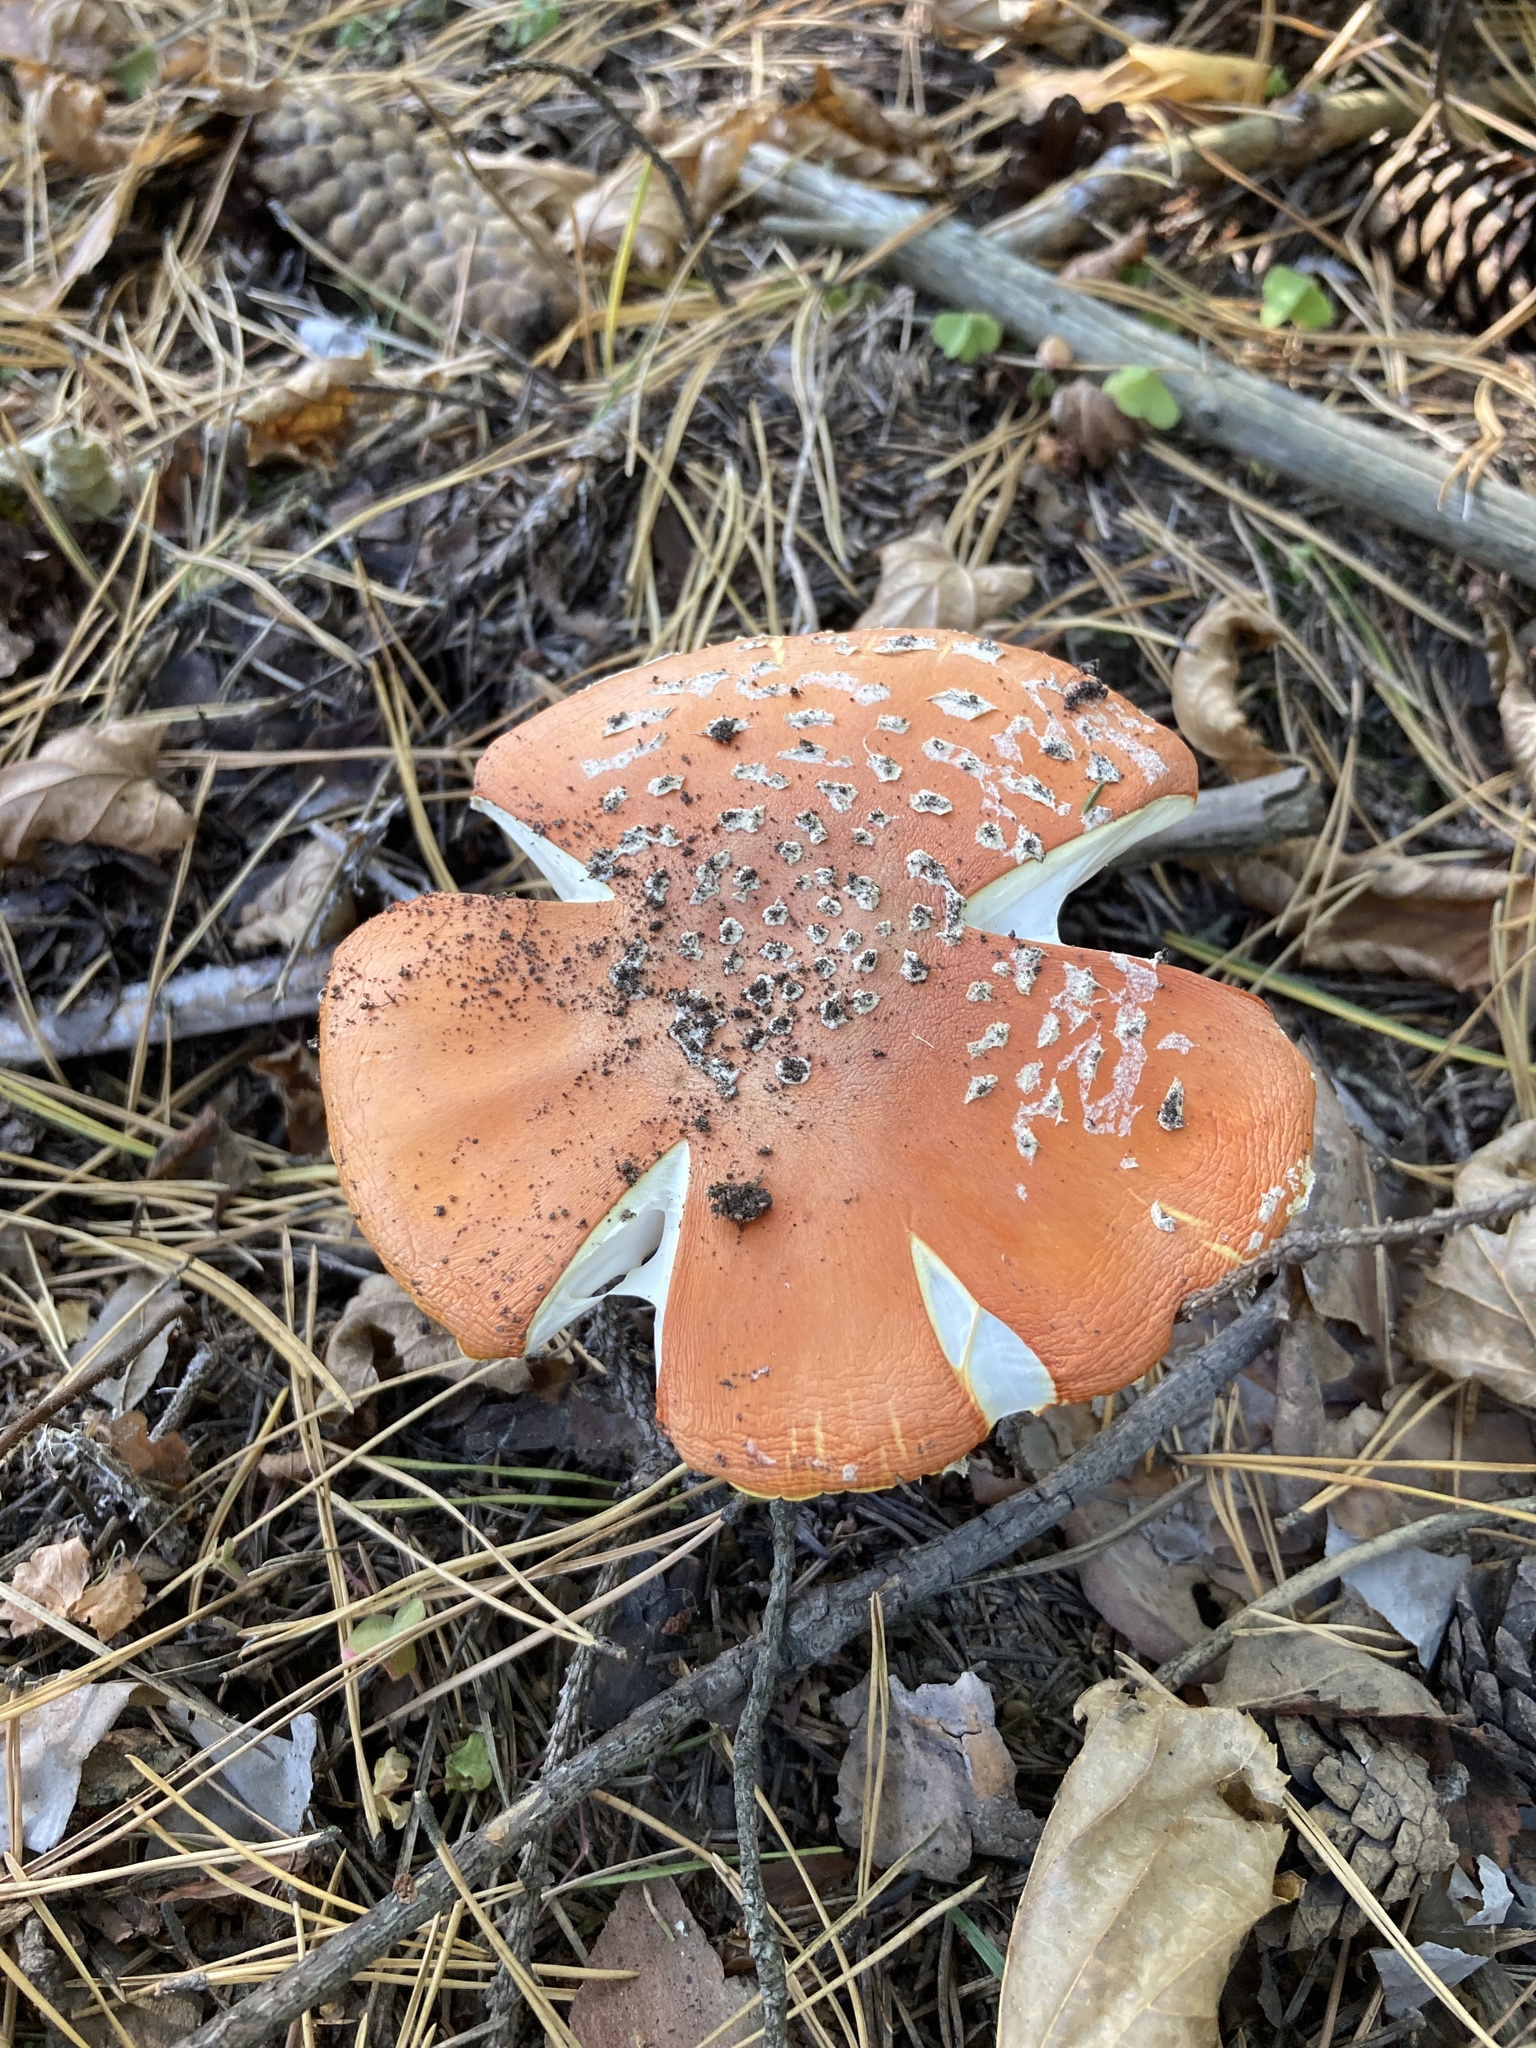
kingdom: Fungi
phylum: Basidiomycota
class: Agaricomycetes
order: Agaricales
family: Amanitaceae
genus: Amanita
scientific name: Amanita muscaria
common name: Fly agaric
